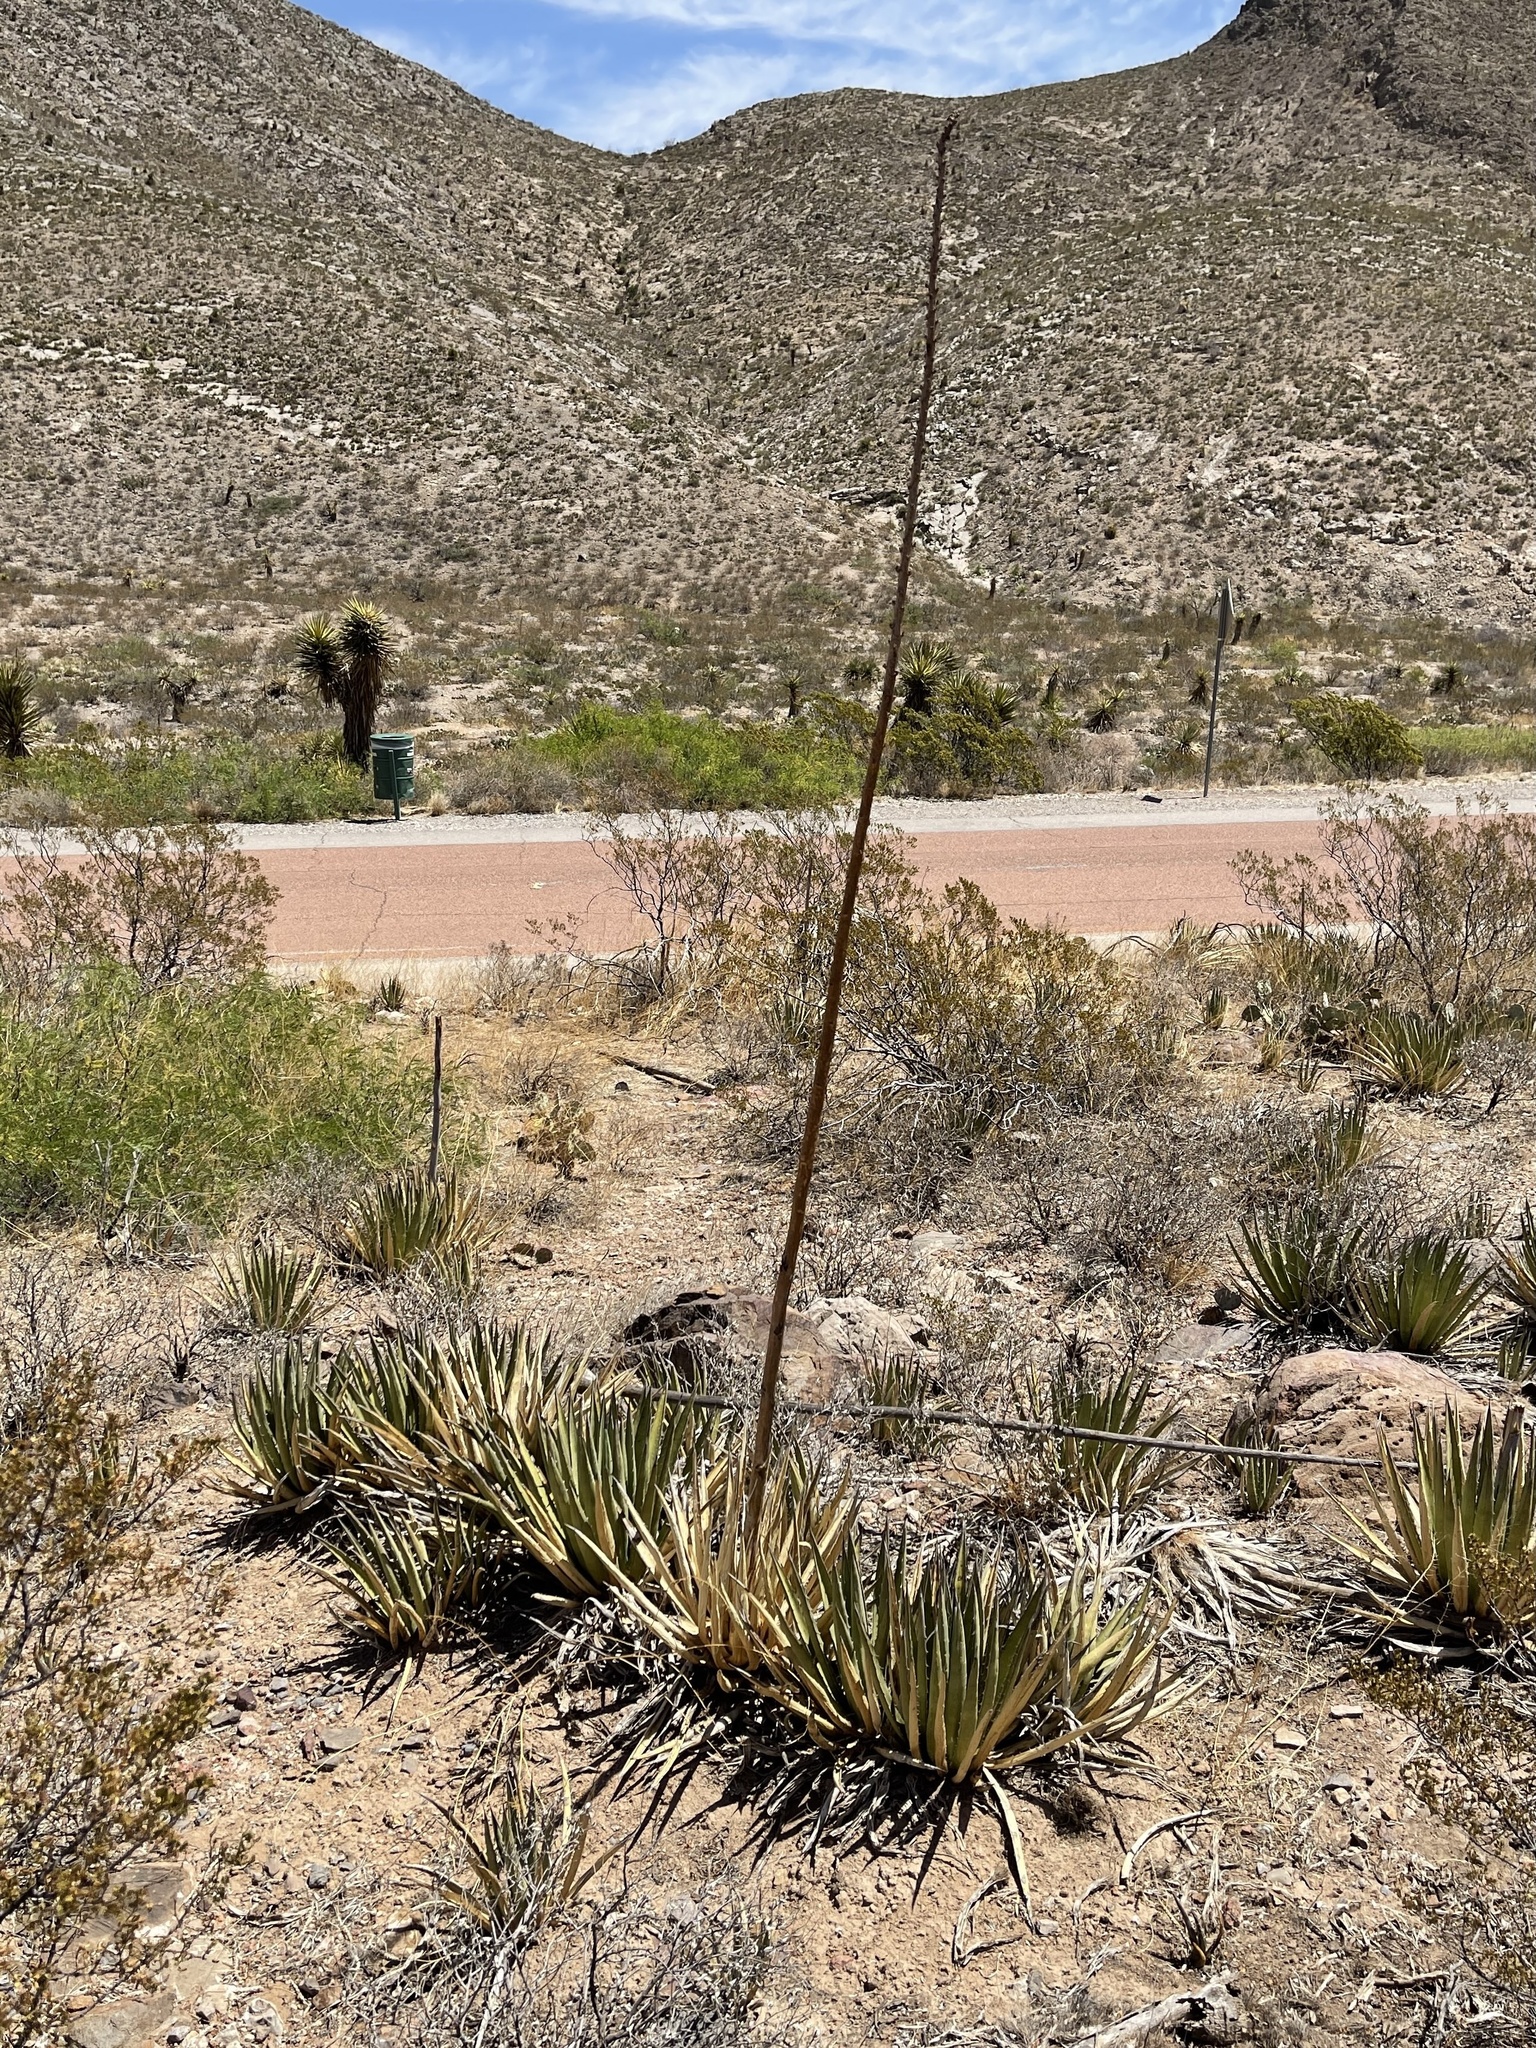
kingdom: Plantae
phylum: Tracheophyta
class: Liliopsida
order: Asparagales
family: Asparagaceae
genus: Agave
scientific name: Agave lechuguilla
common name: Lecheguilla agave
